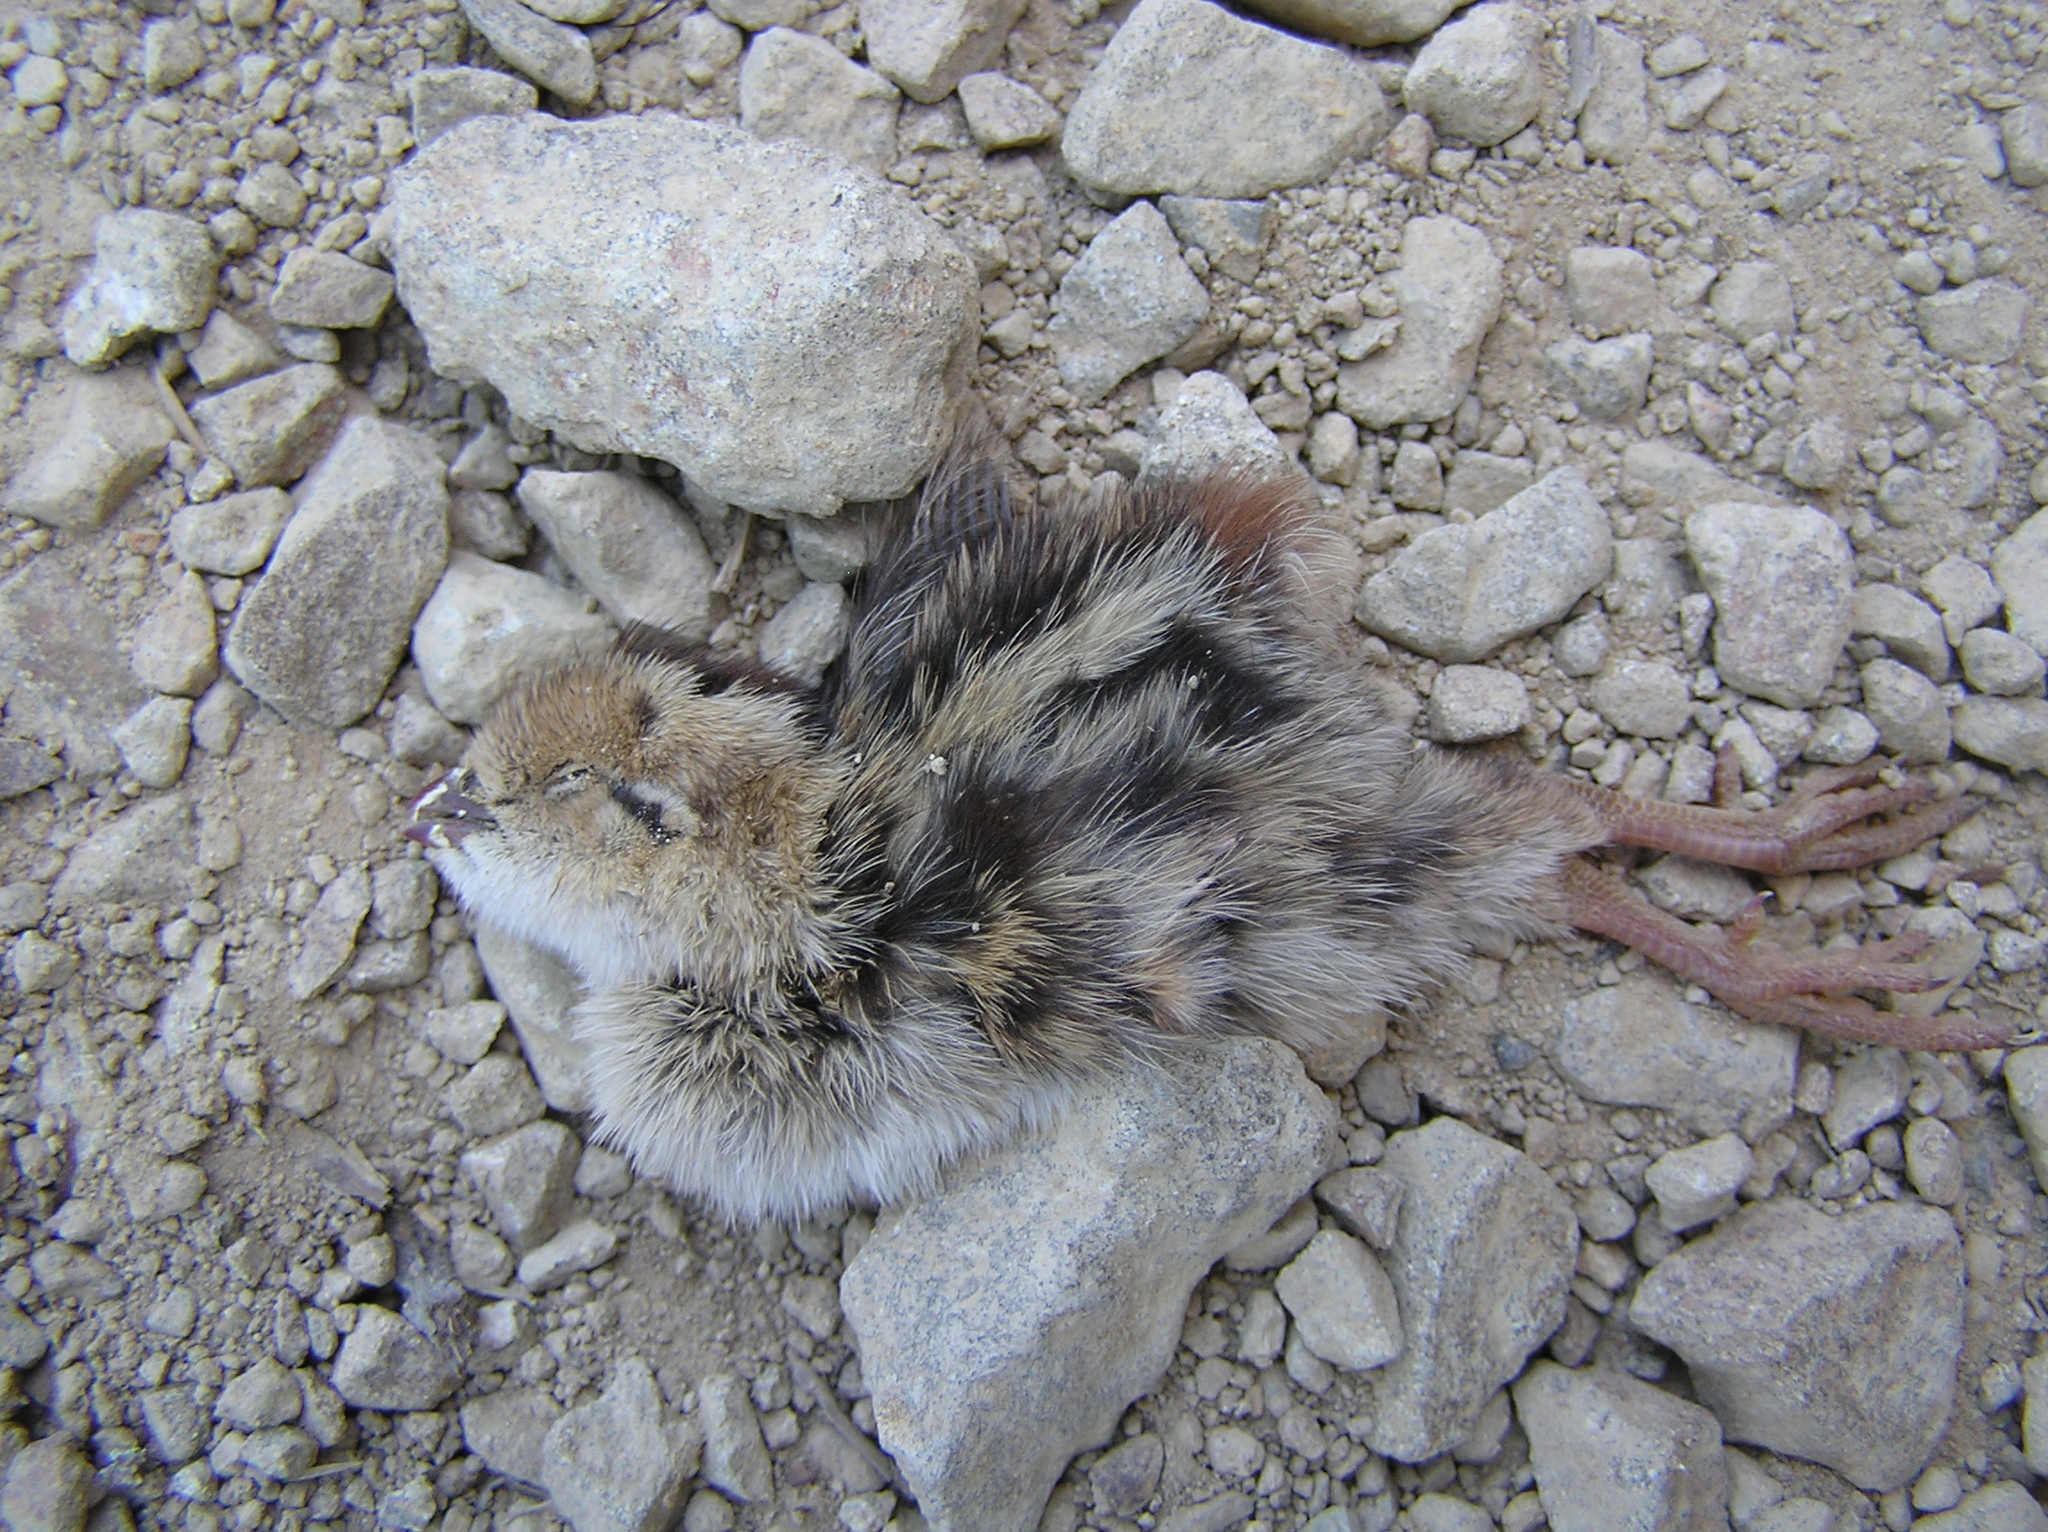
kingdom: Animalia
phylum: Chordata
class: Aves
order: Galliformes
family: Odontophoridae
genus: Callipepla
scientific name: Callipepla californica
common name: California quail
